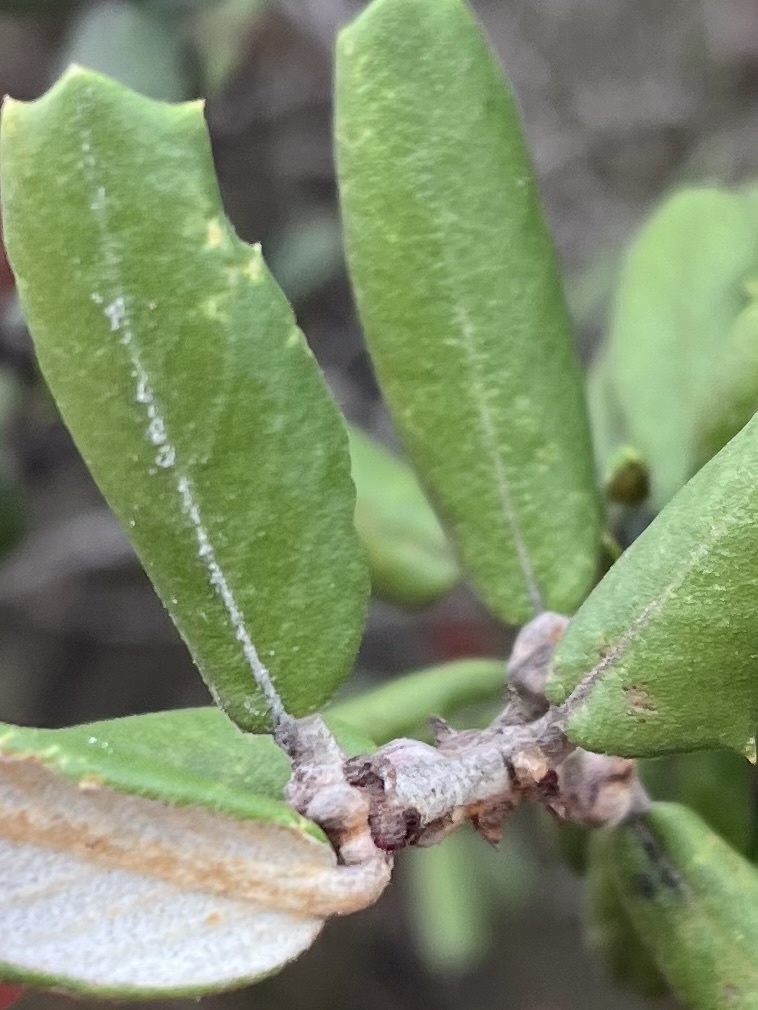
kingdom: Plantae
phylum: Tracheophyta
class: Magnoliopsida
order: Rosales
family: Rhamnaceae
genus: Ceanothus
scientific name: Ceanothus crassifolius
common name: Hoaryleaf ceanothus
